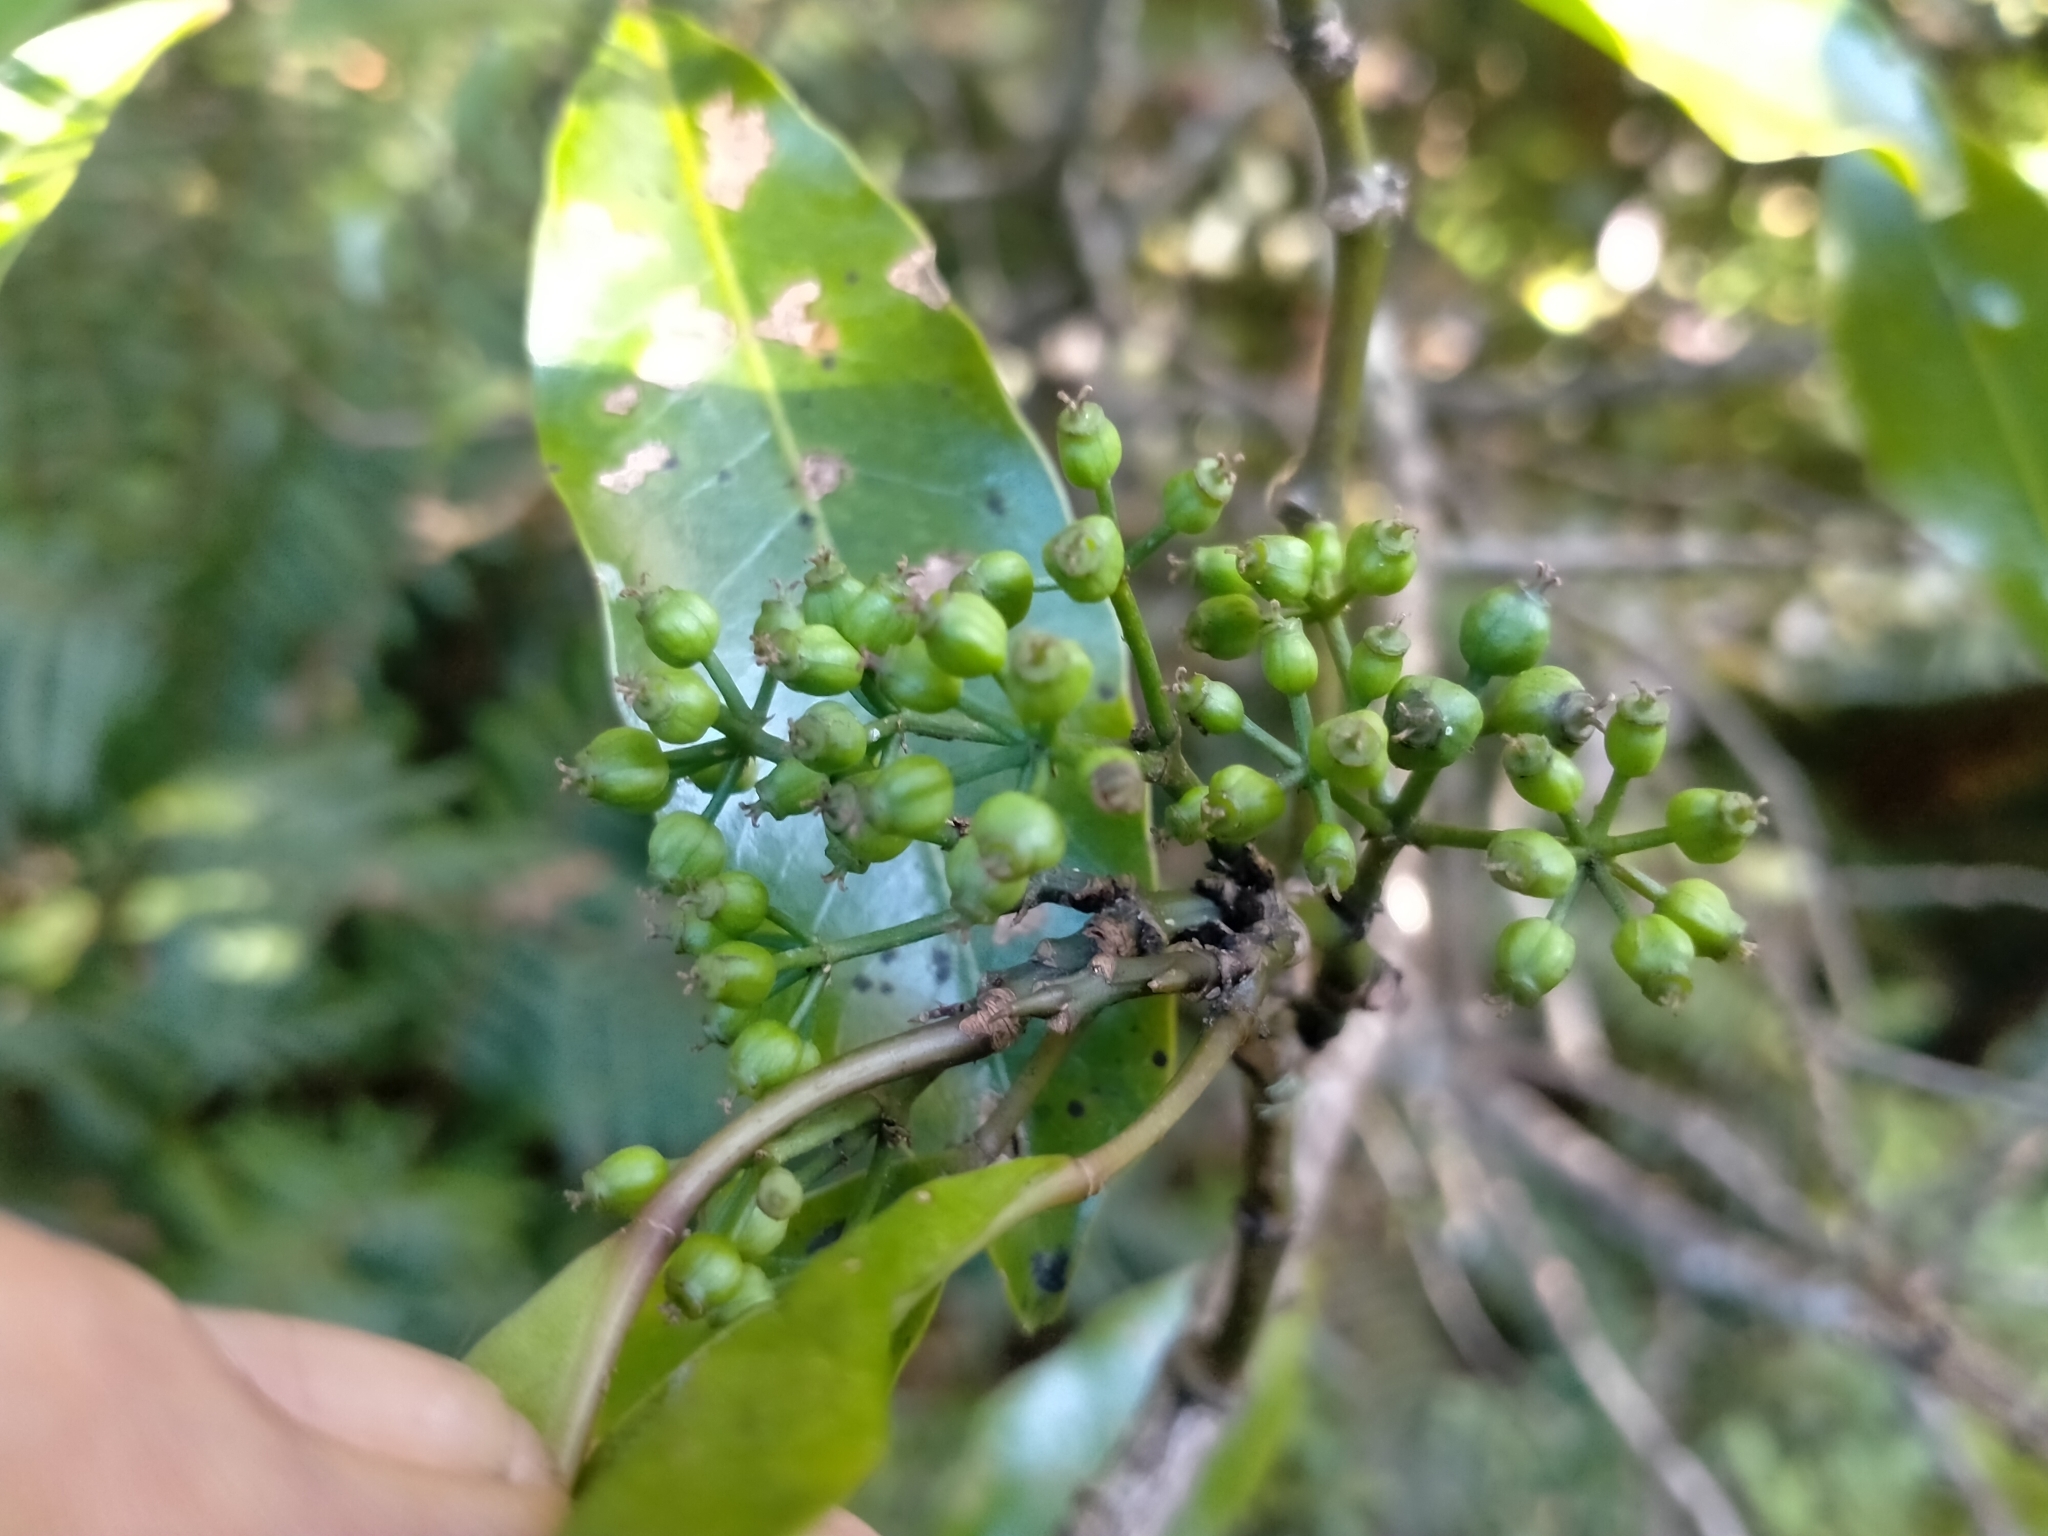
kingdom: Plantae
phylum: Tracheophyta
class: Magnoliopsida
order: Apiales
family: Araliaceae
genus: Raukaua
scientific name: Raukaua edgerleyi
